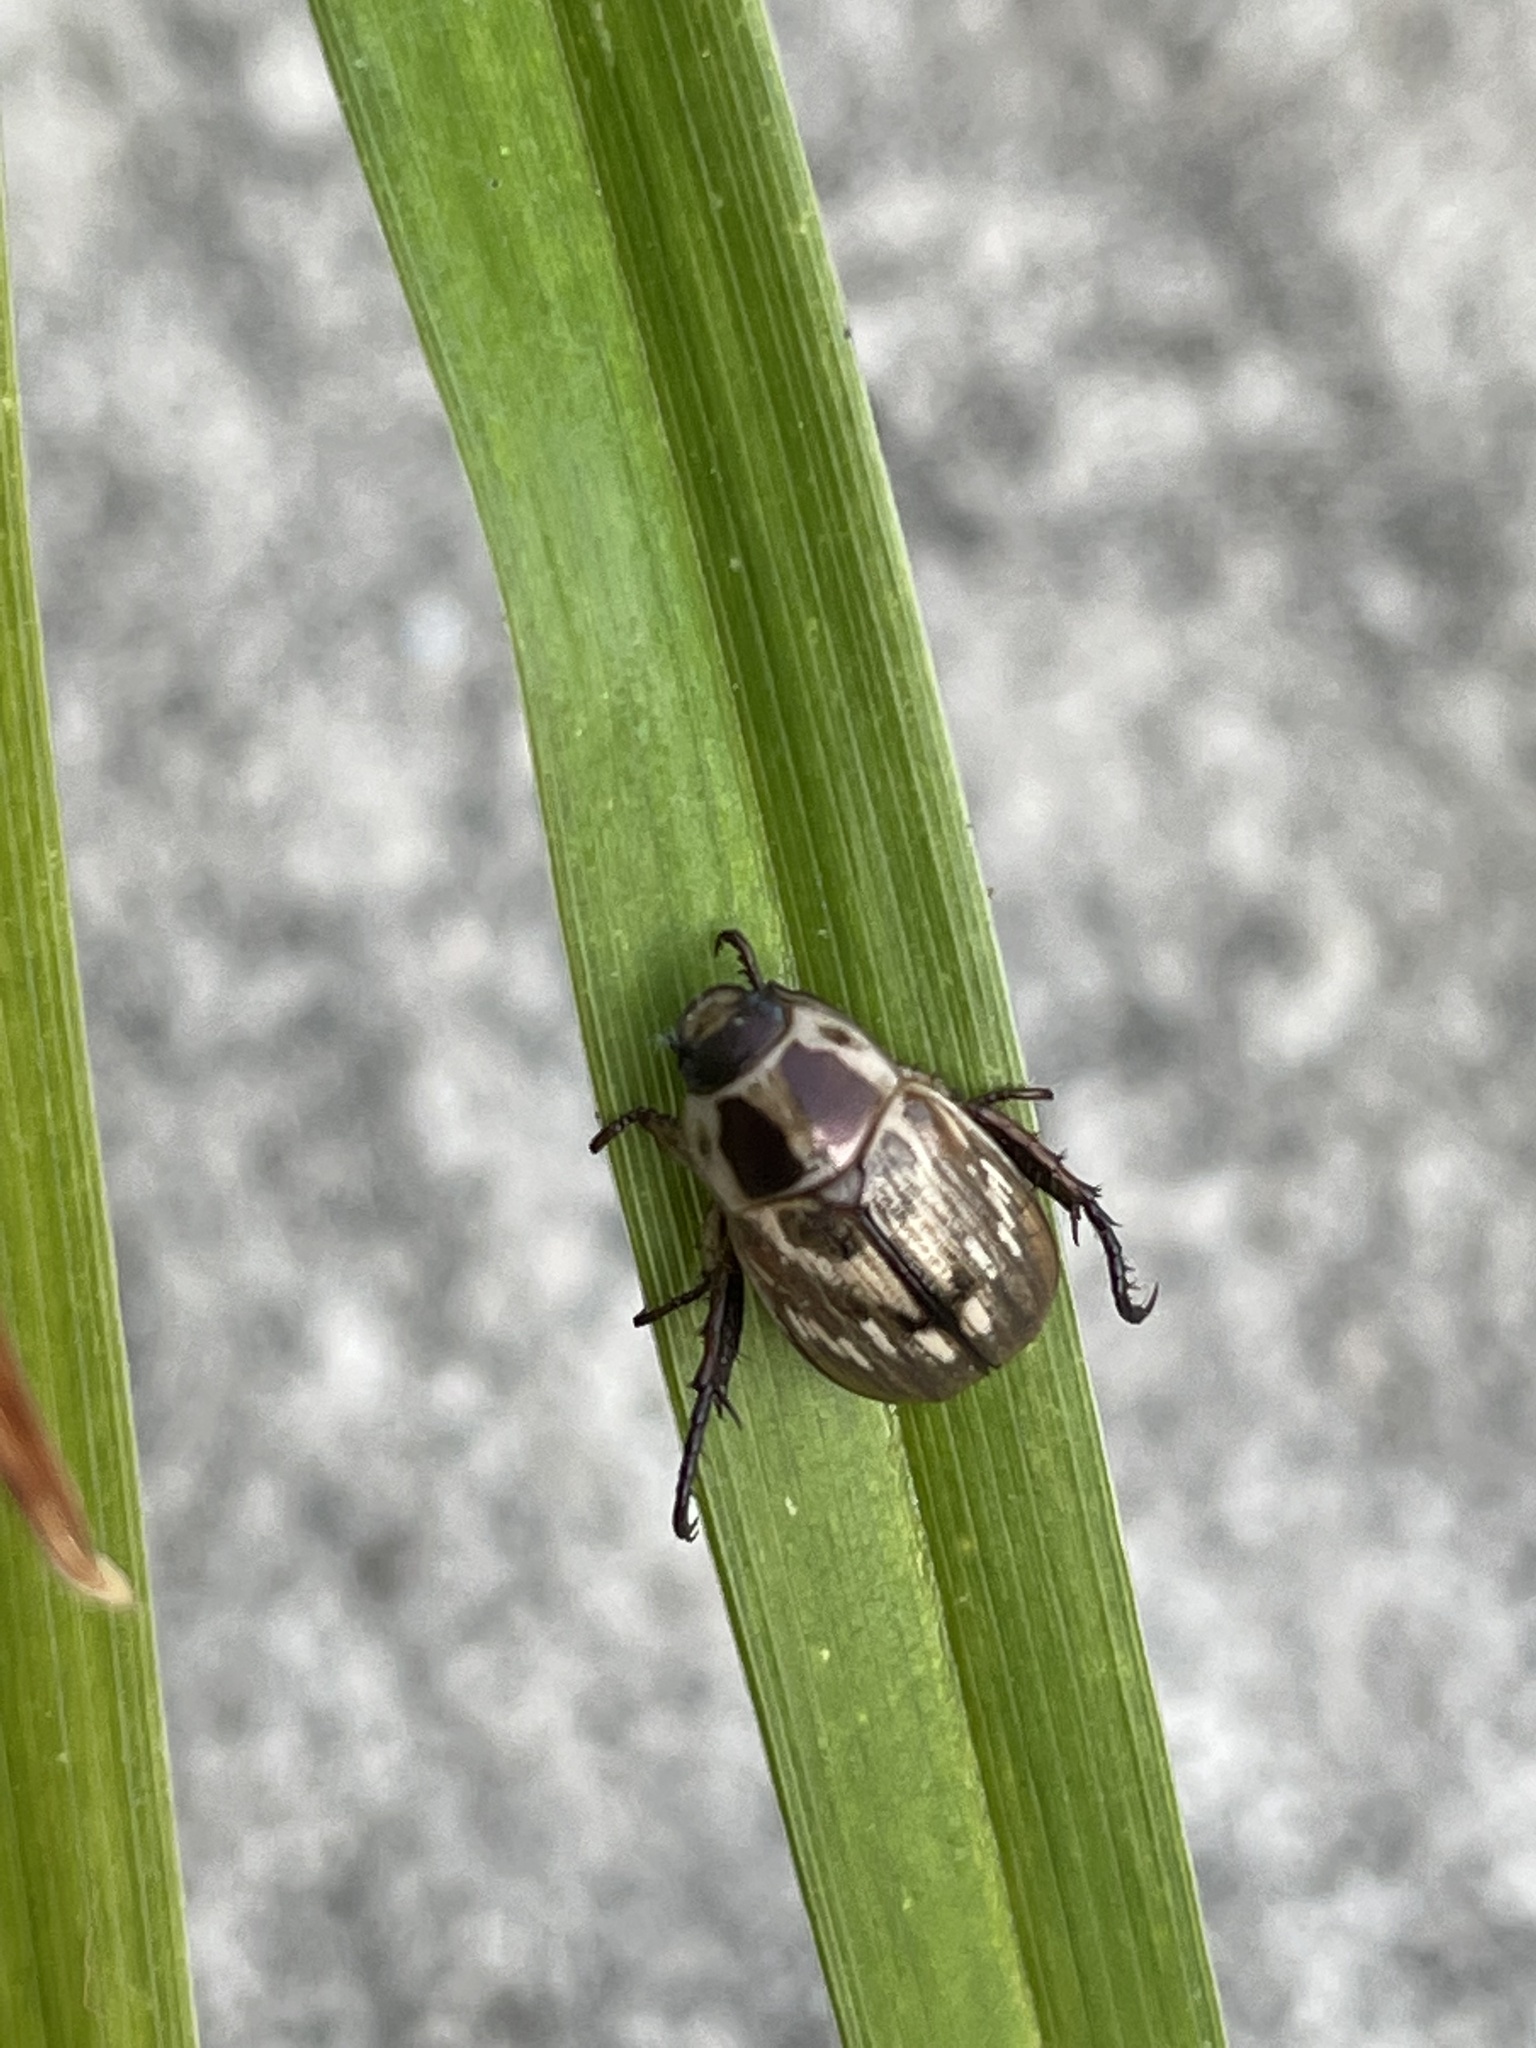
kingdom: Animalia
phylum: Arthropoda
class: Insecta
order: Coleoptera
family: Scarabaeidae
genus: Exomala
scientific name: Exomala orientalis
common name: Oriental beetle
